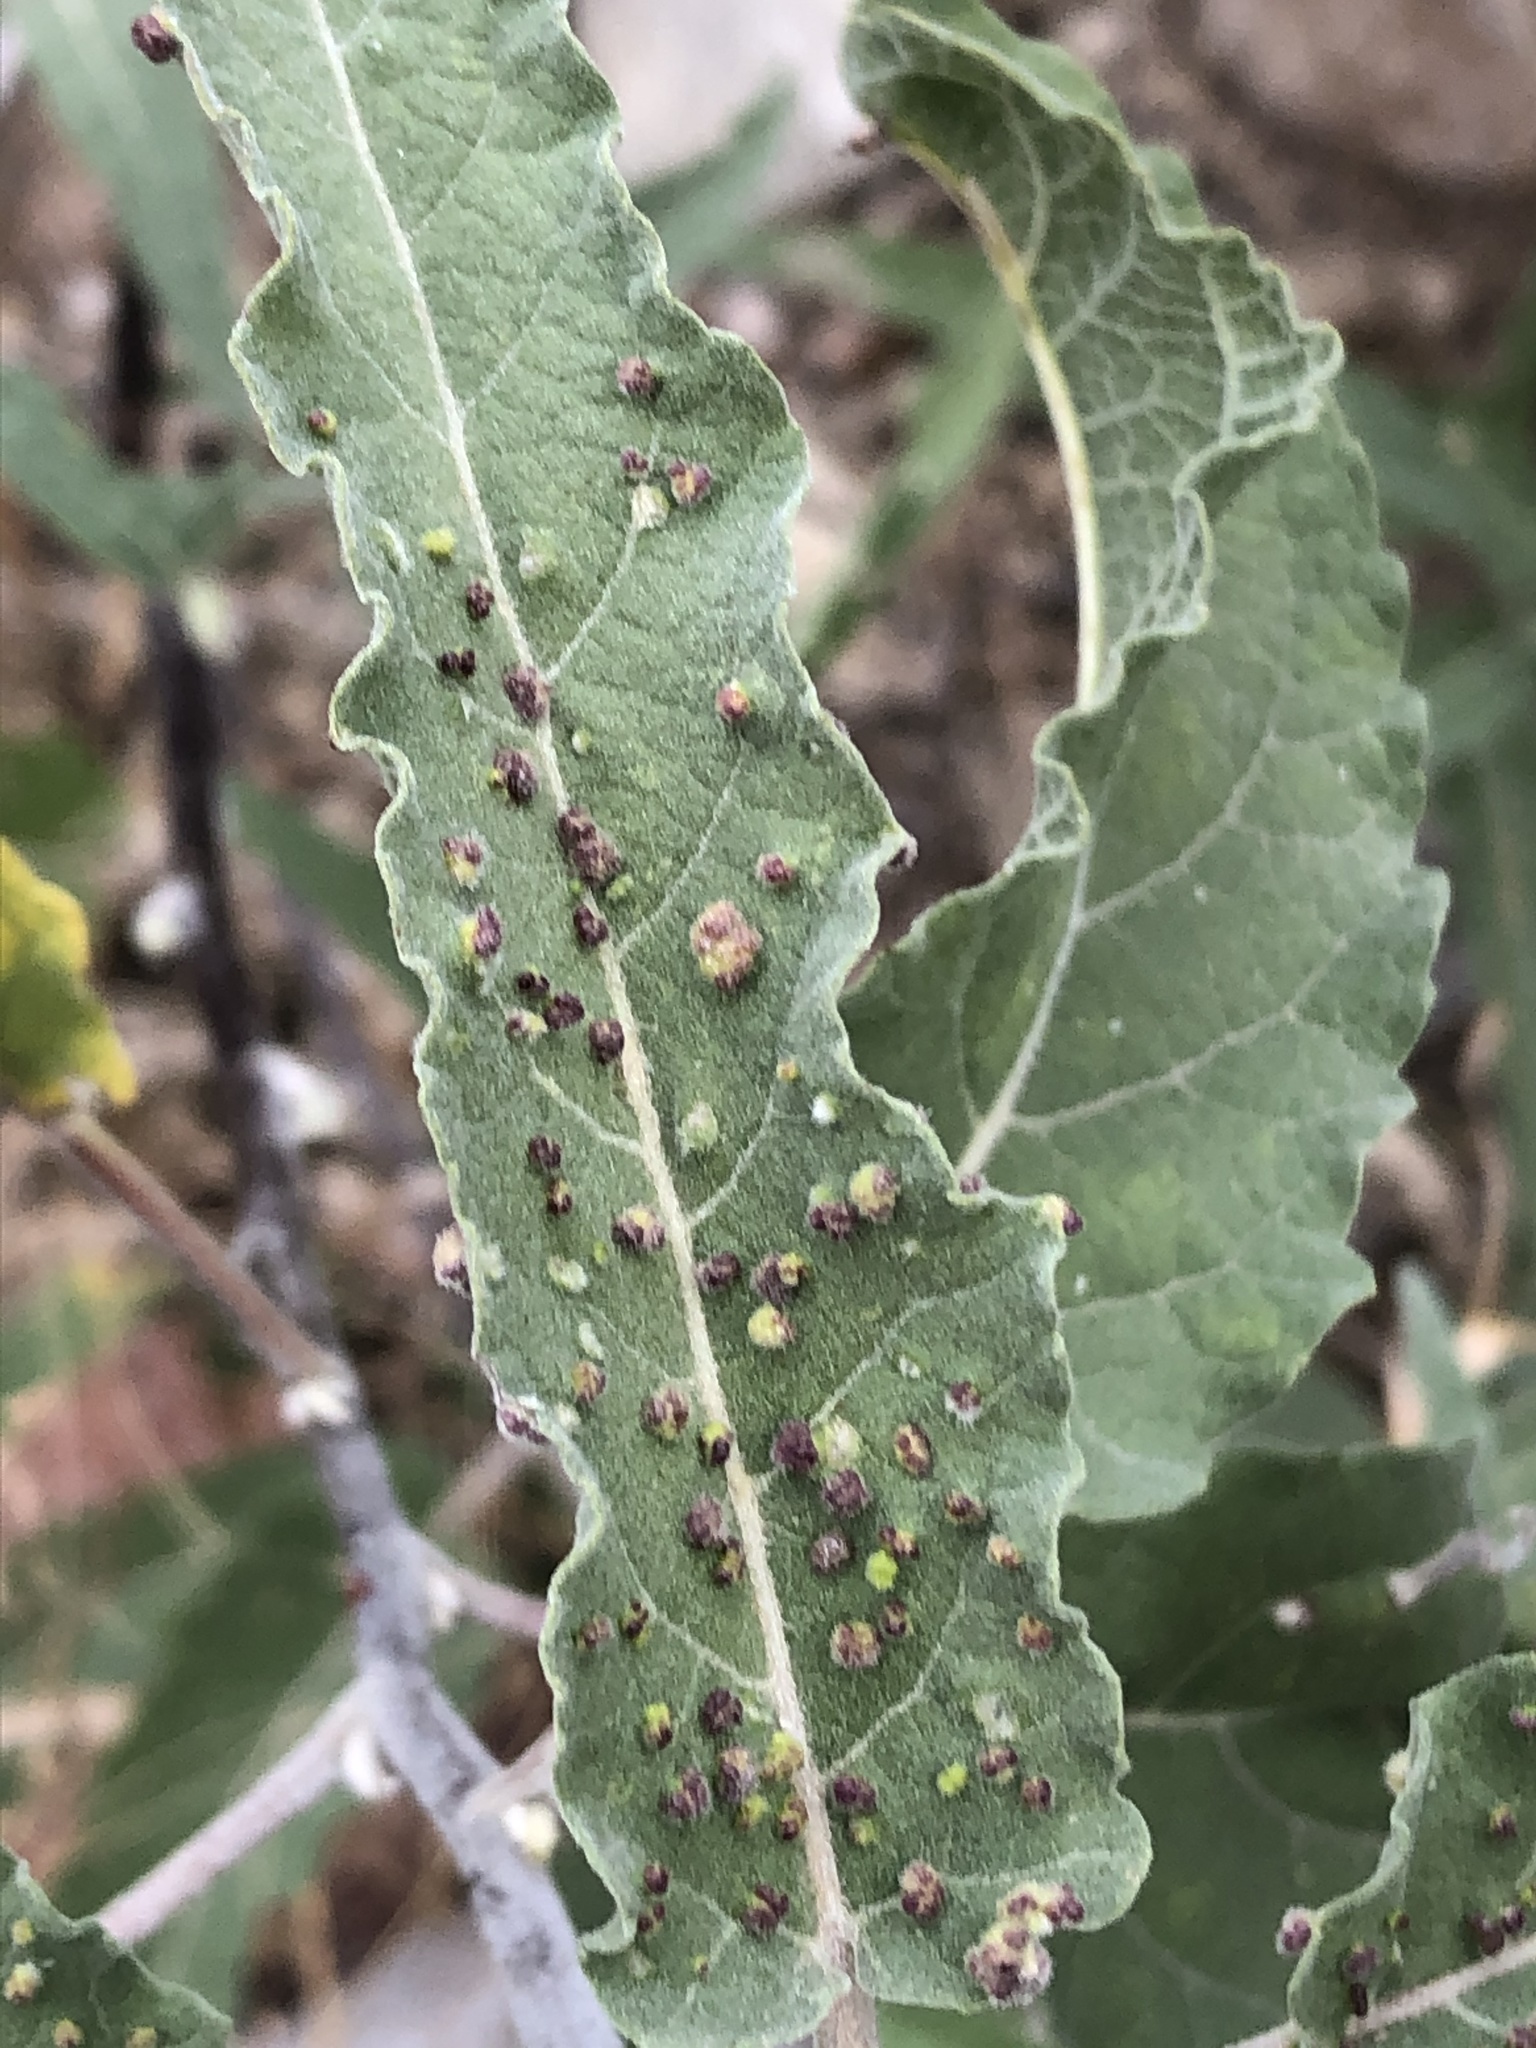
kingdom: Animalia
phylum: Arthropoda
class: Arachnida
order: Trombidiformes
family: Eriophyidae
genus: Aceria
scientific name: Aceria
